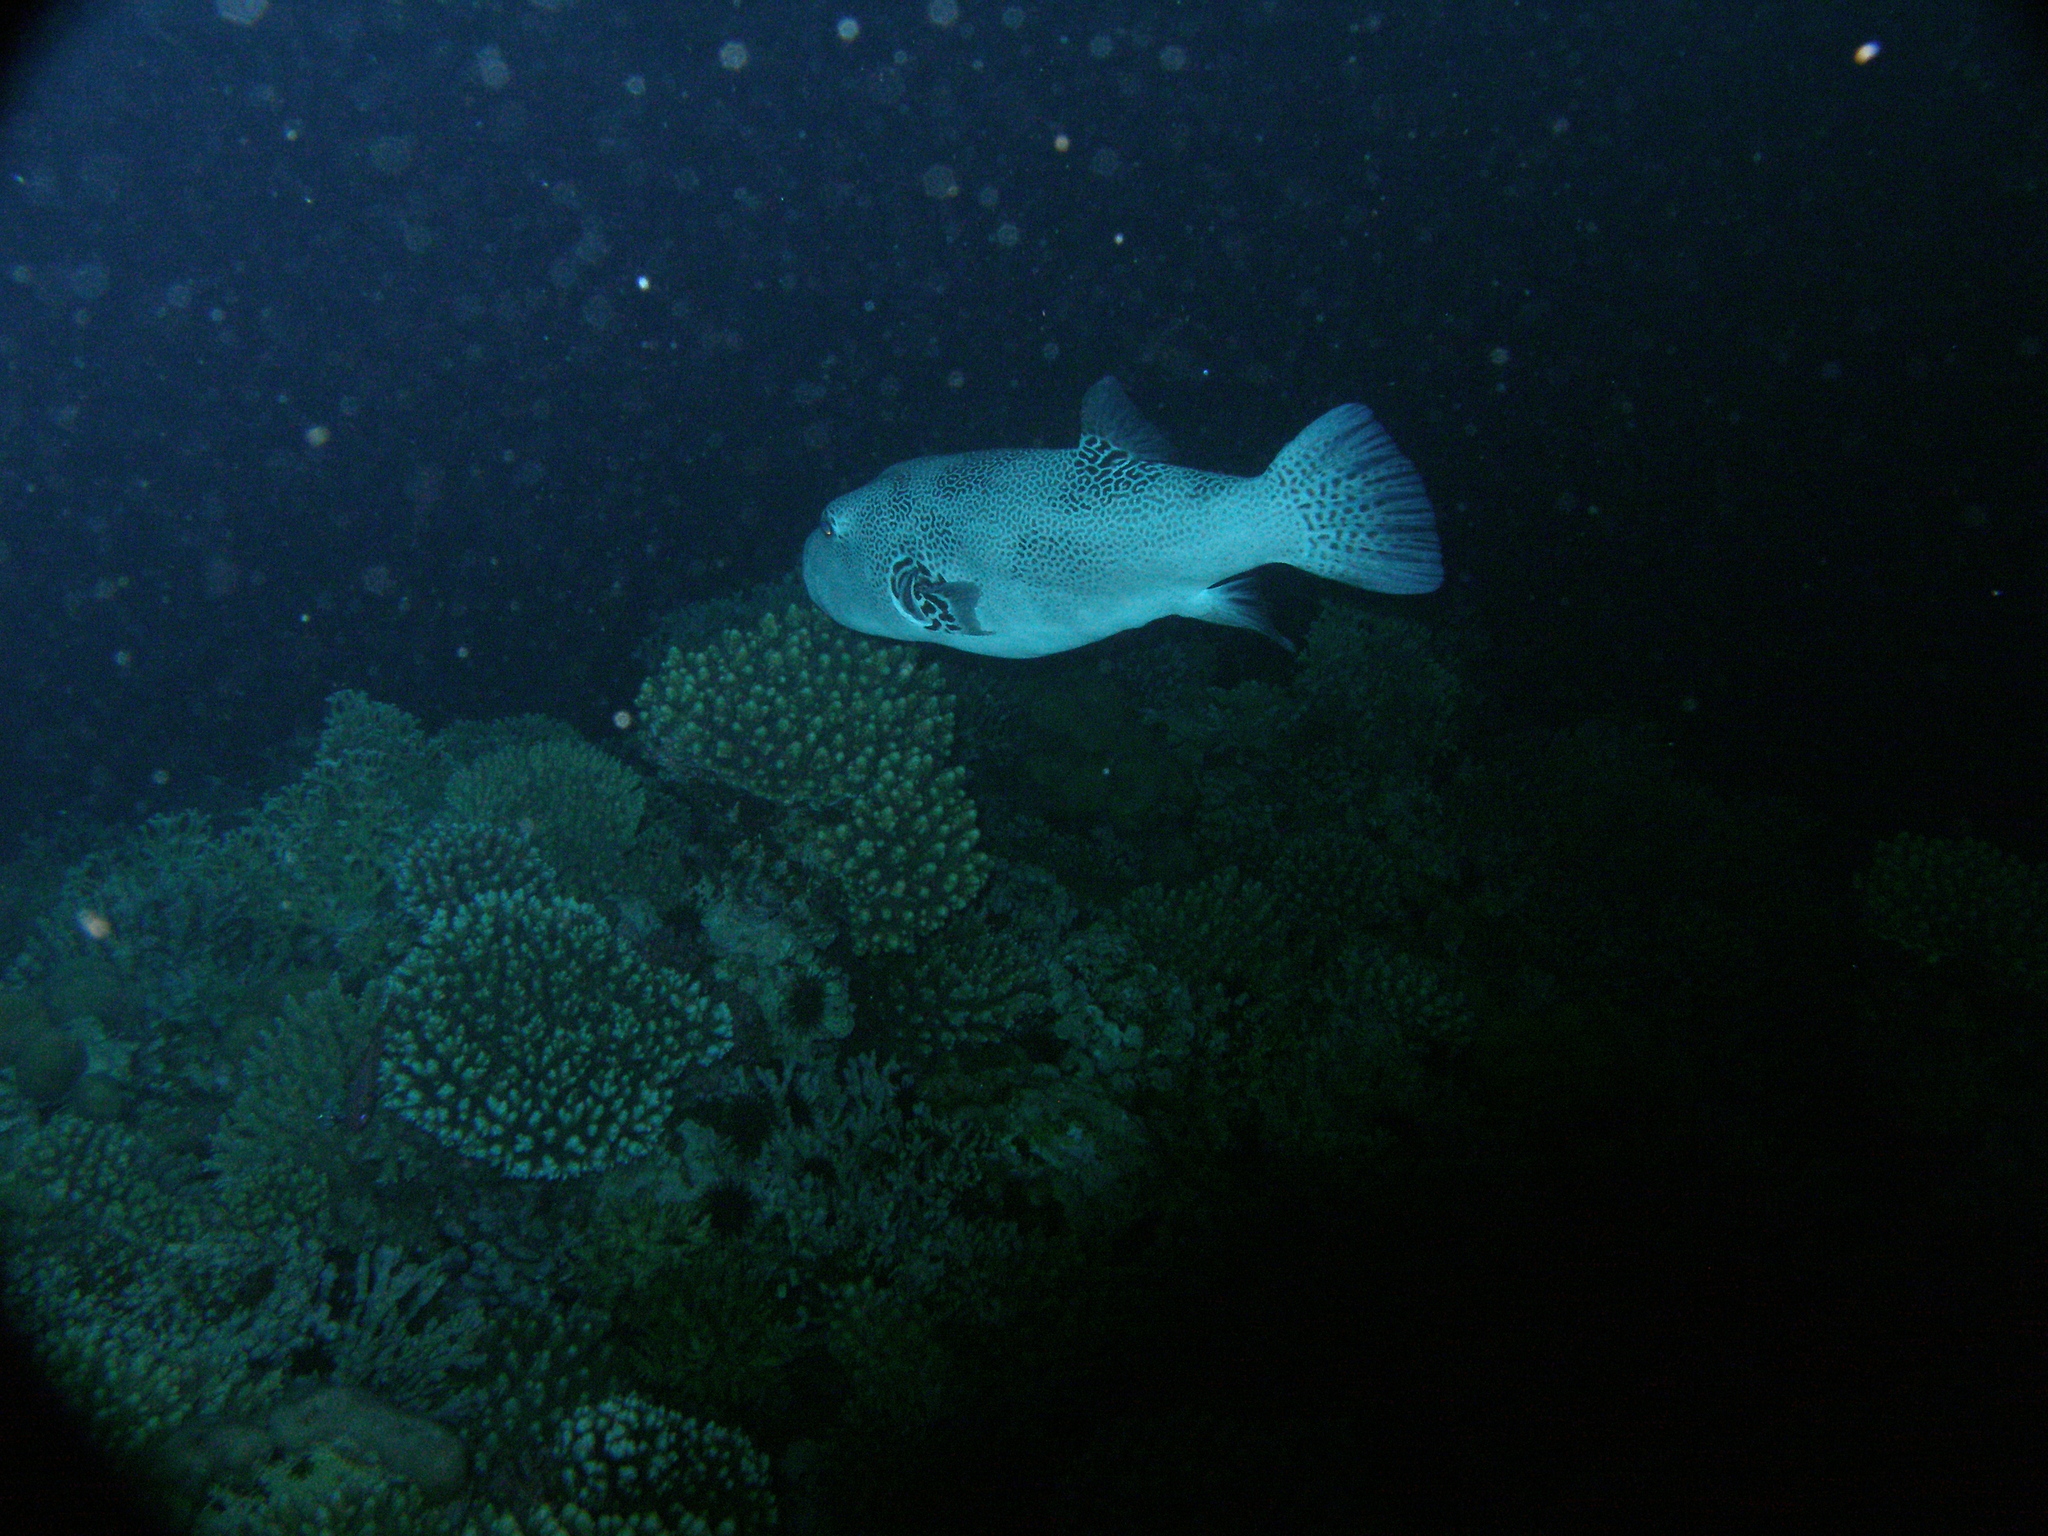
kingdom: Animalia
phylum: Chordata
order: Tetraodontiformes
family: Tetraodontidae
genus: Arothron
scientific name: Arothron stellatus
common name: Star blaasop
